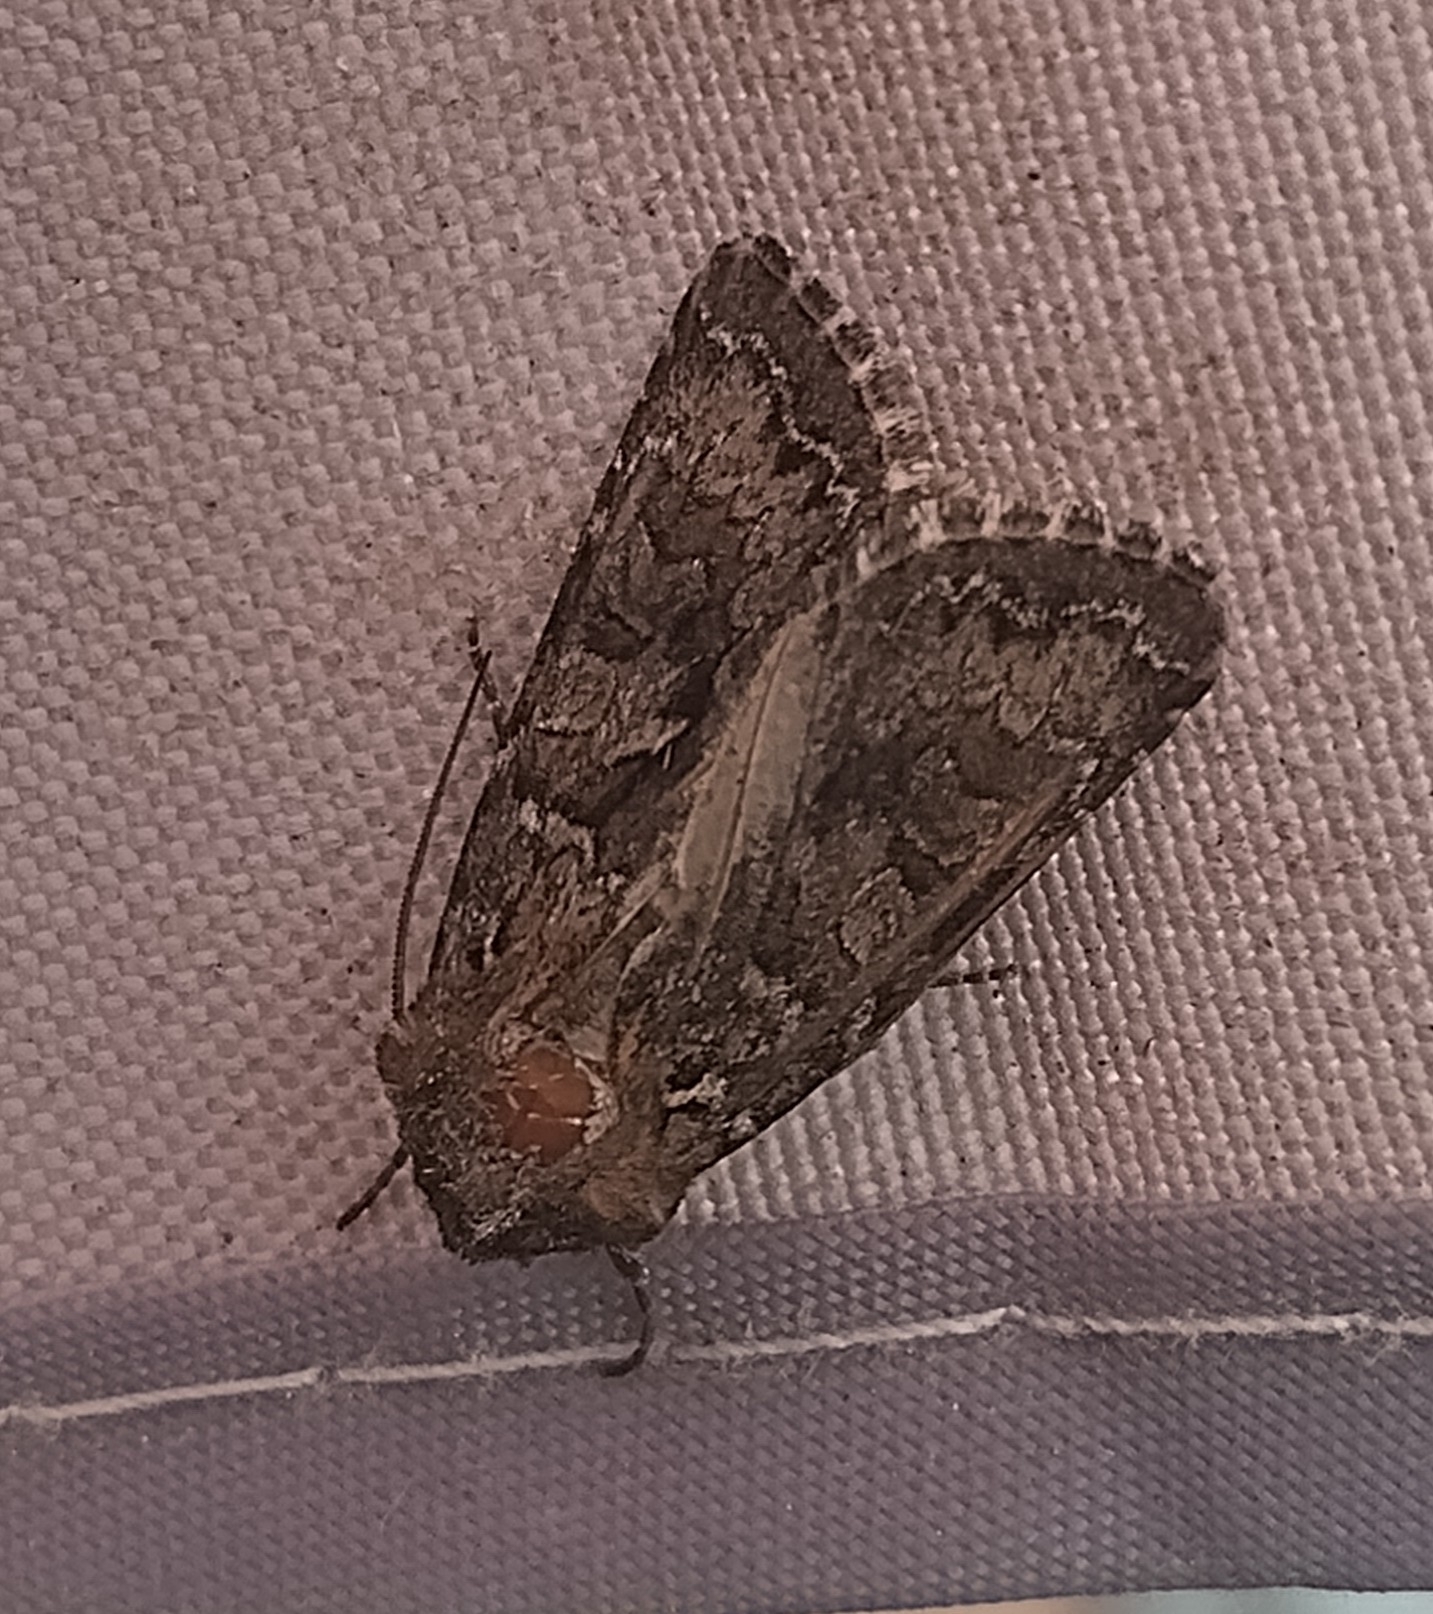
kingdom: Animalia
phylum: Arthropoda
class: Insecta
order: Lepidoptera
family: Noctuidae
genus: Hada
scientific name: Hada plebeja
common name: Shears
